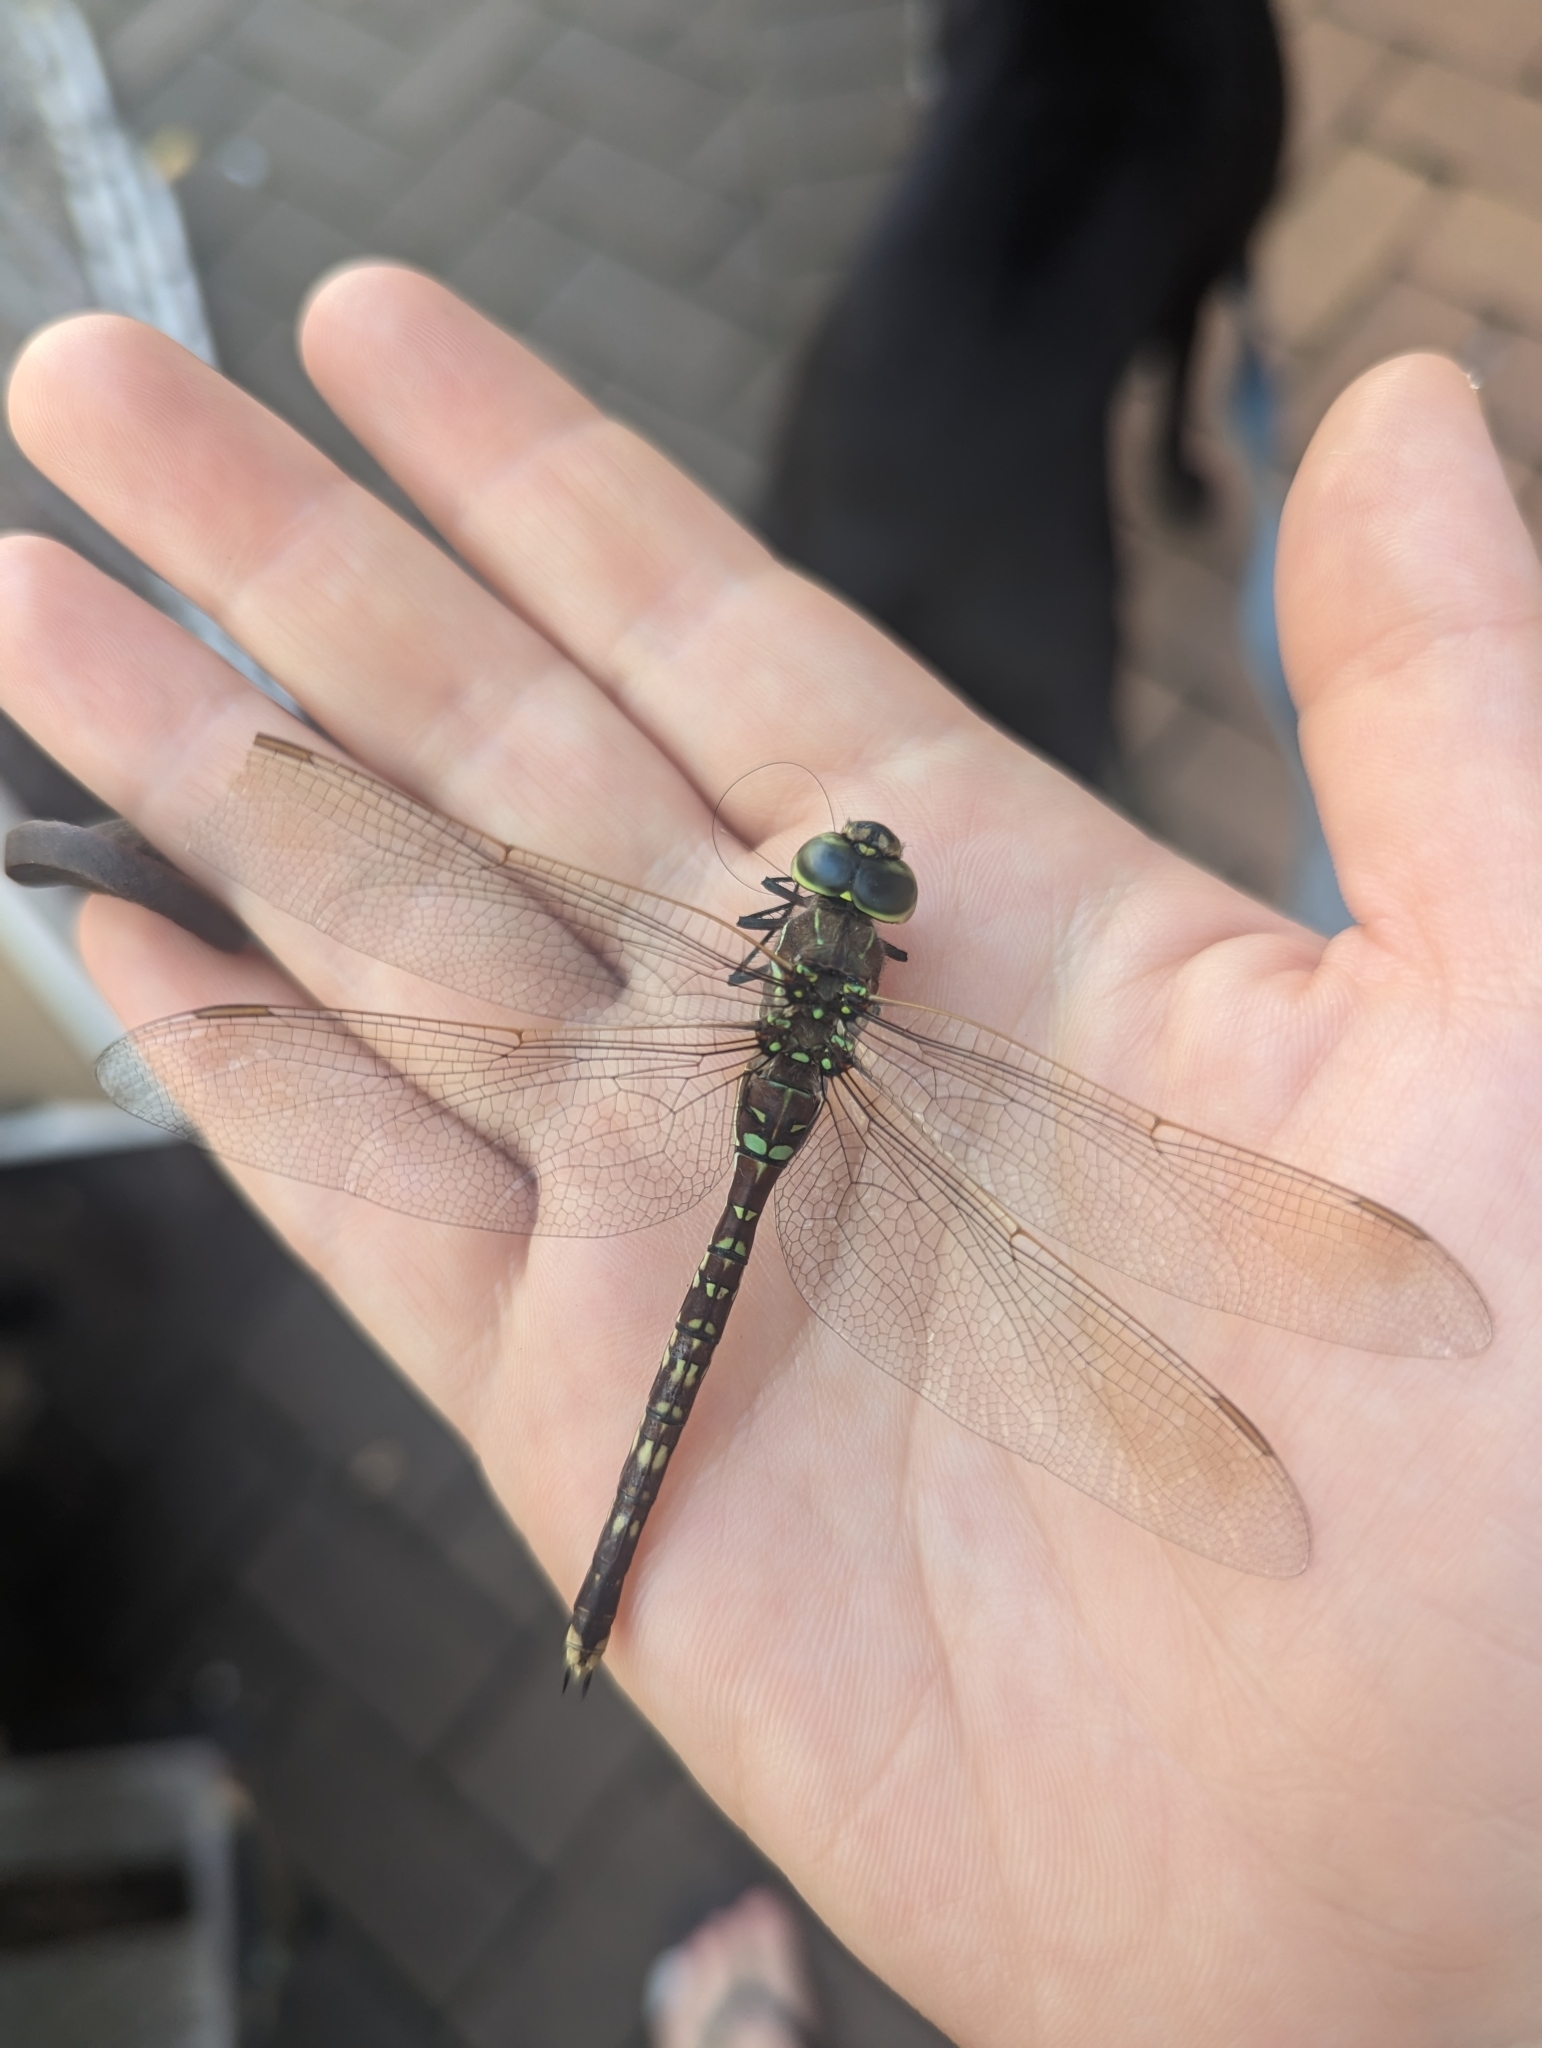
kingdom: Animalia
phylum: Arthropoda
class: Insecta
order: Odonata
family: Aeshnidae
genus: Aeshna
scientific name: Aeshna brevistyla
